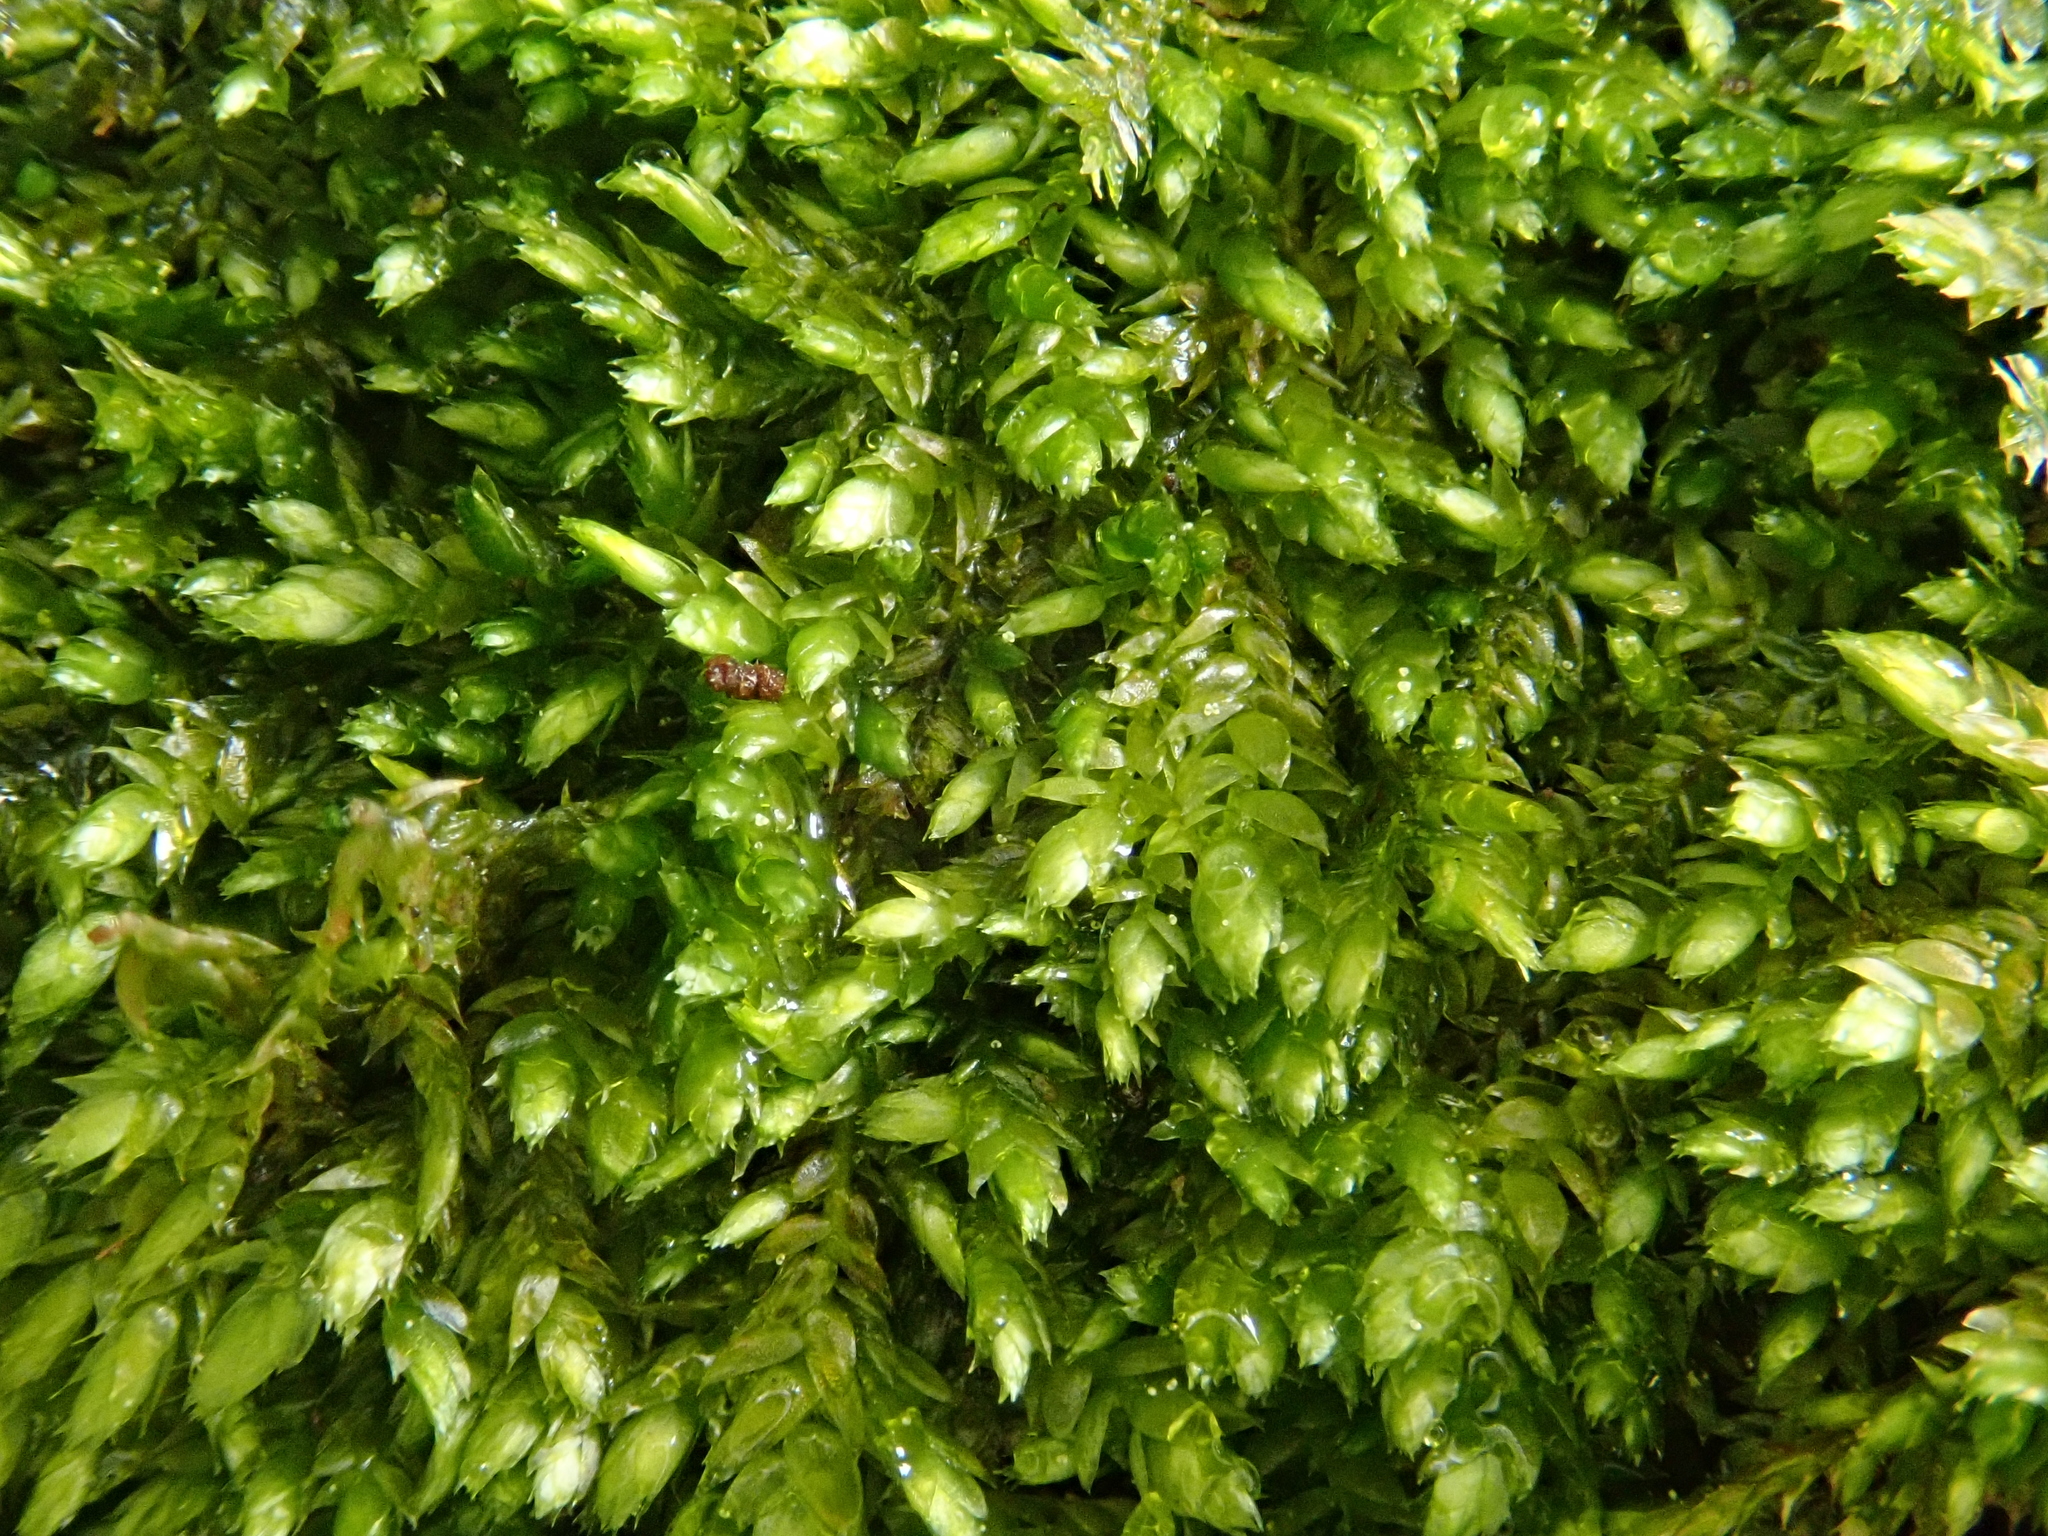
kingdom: Plantae
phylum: Bryophyta
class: Bryopsida
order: Hypnales
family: Taxiphyllaceae
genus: Taxiphyllum
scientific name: Taxiphyllum wissgrillii
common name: Depressed feather-moss
